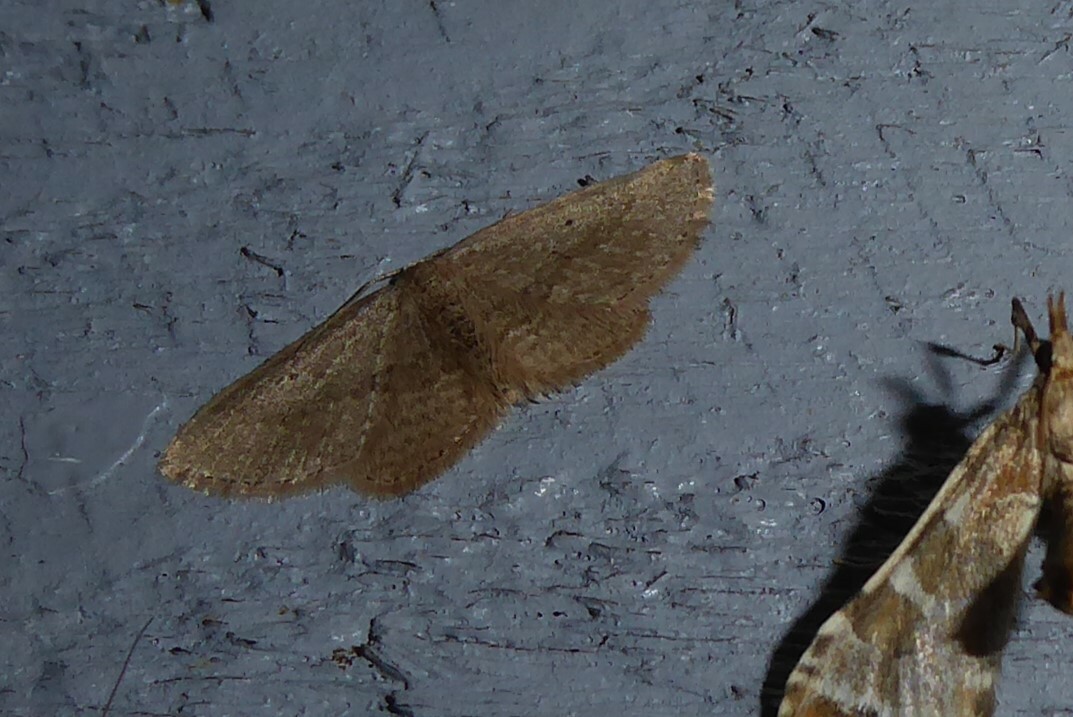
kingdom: Animalia
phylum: Arthropoda
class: Insecta
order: Lepidoptera
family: Geometridae
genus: Poecilasthena
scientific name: Poecilasthena schistaria
